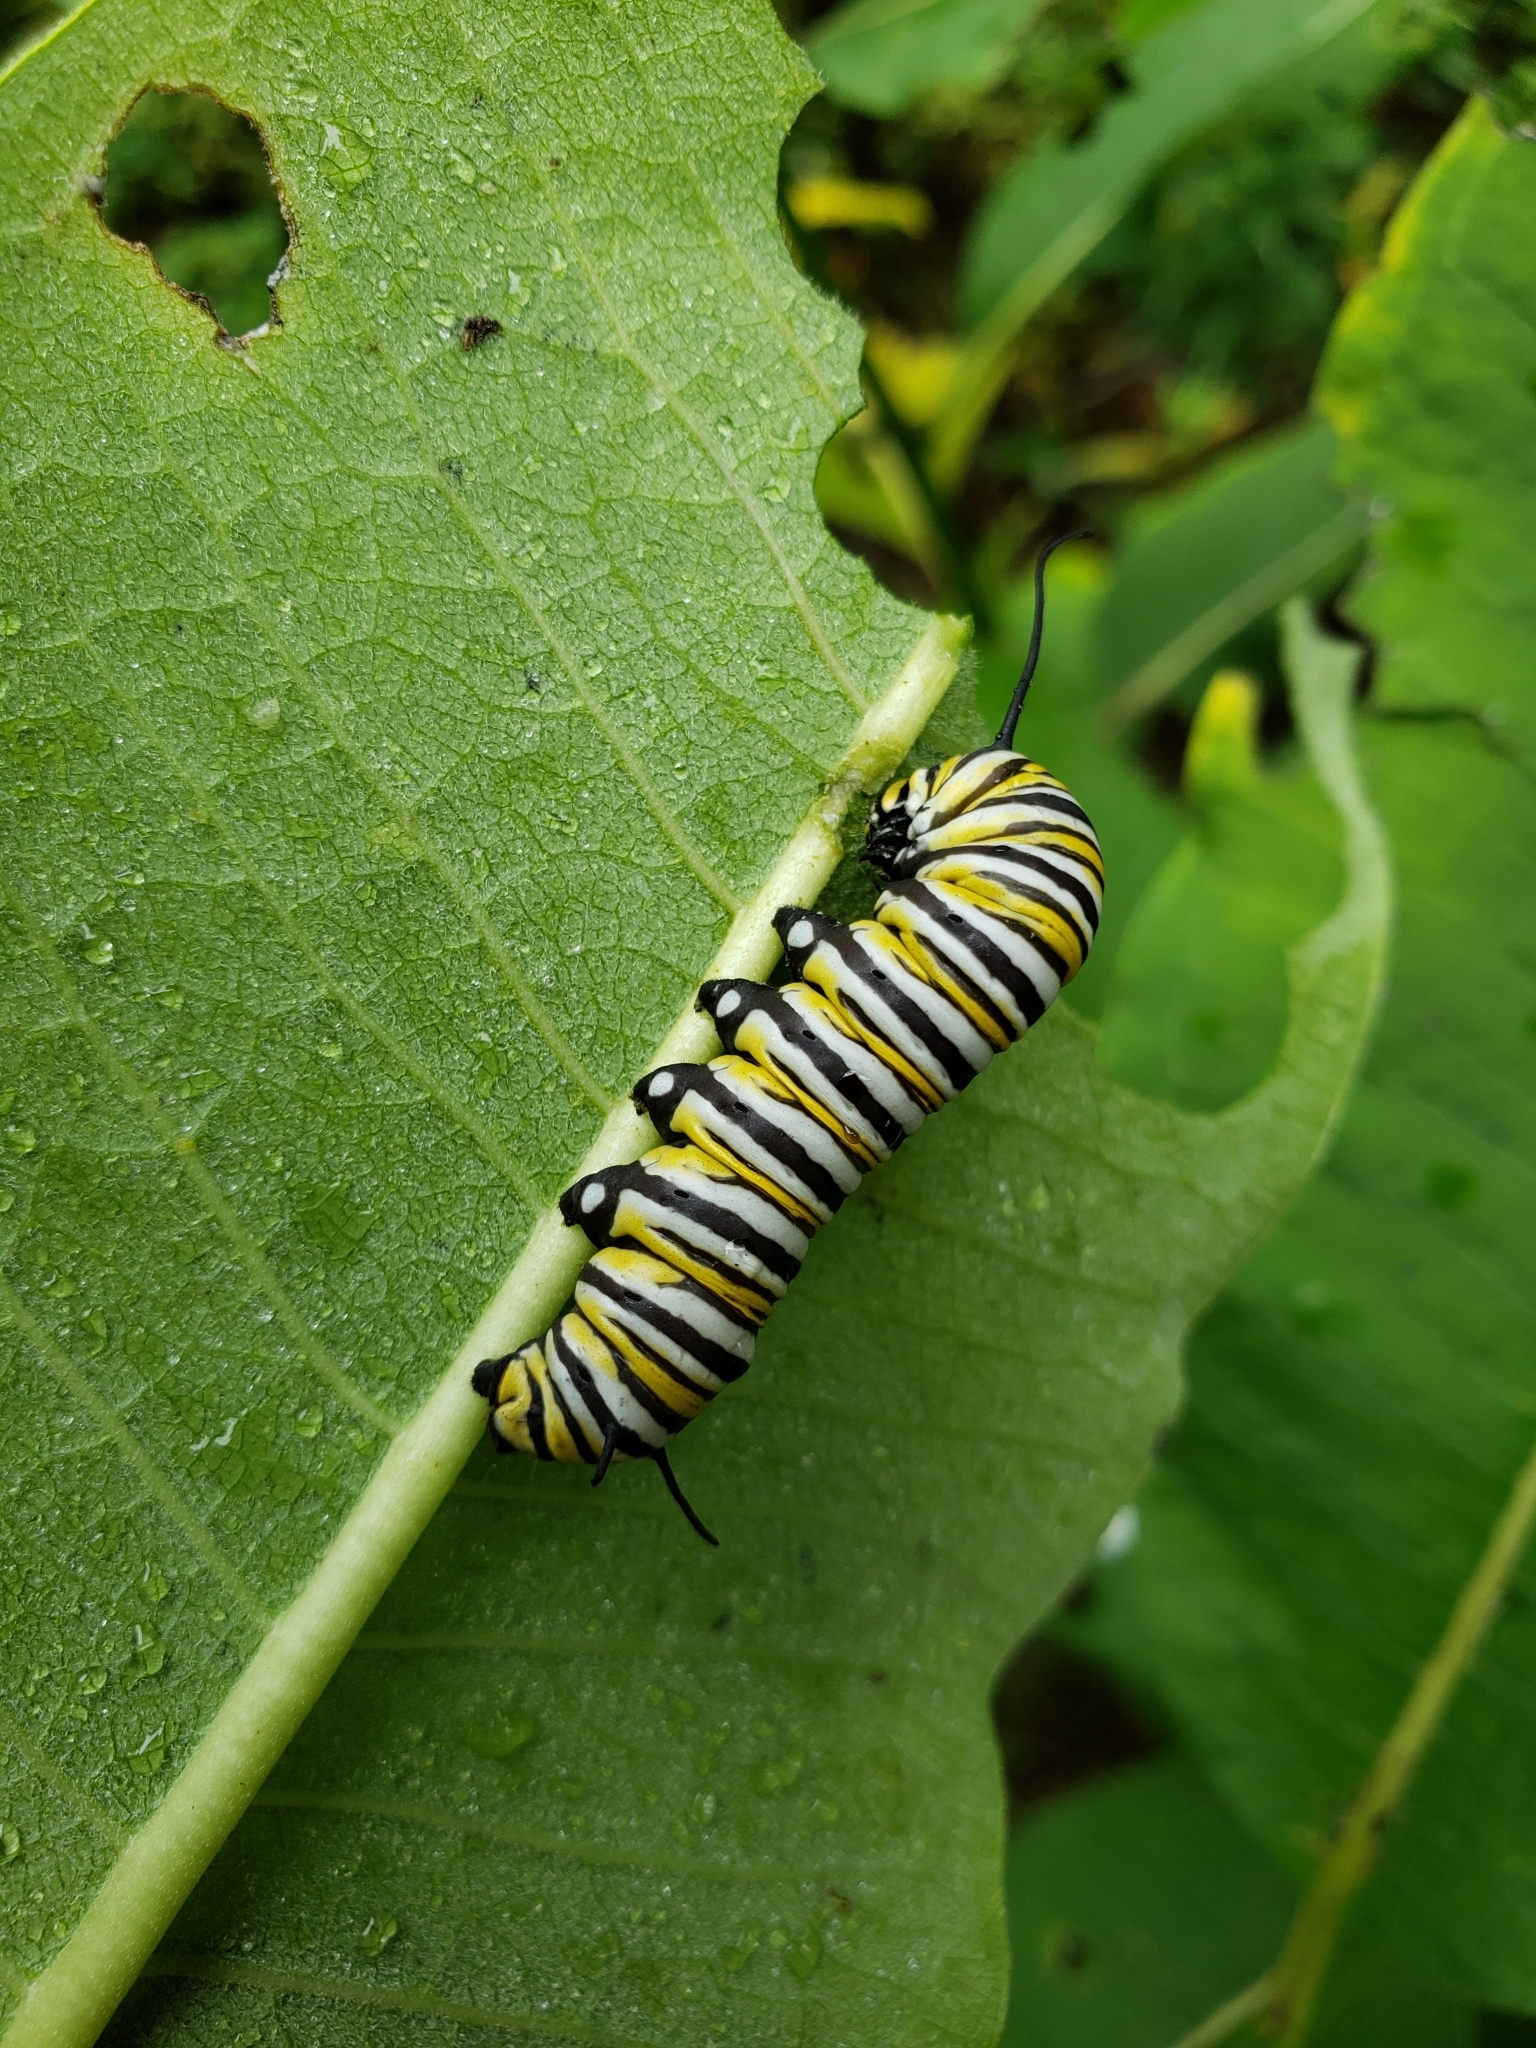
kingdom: Animalia
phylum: Arthropoda
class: Insecta
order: Lepidoptera
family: Nymphalidae
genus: Danaus
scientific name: Danaus plexippus
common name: Monarch
